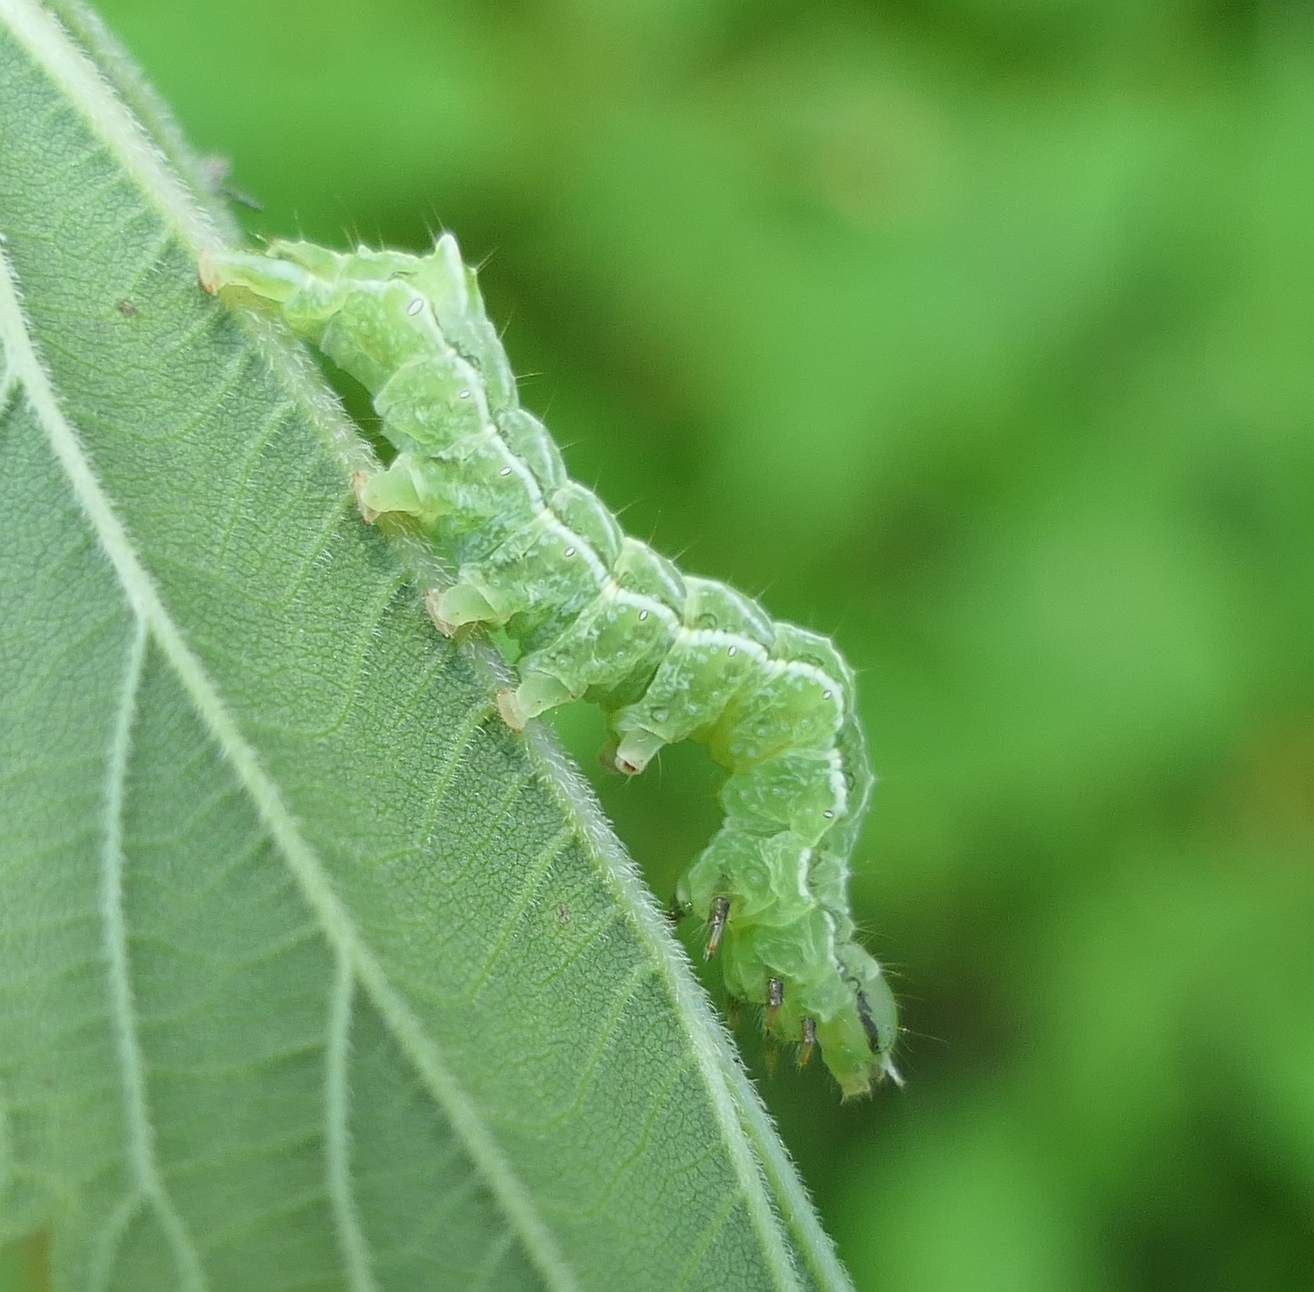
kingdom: Animalia
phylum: Arthropoda
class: Insecta
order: Lepidoptera
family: Noctuidae
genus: Abrostola
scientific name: Abrostola urentis
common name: Spectacled nettle moth
